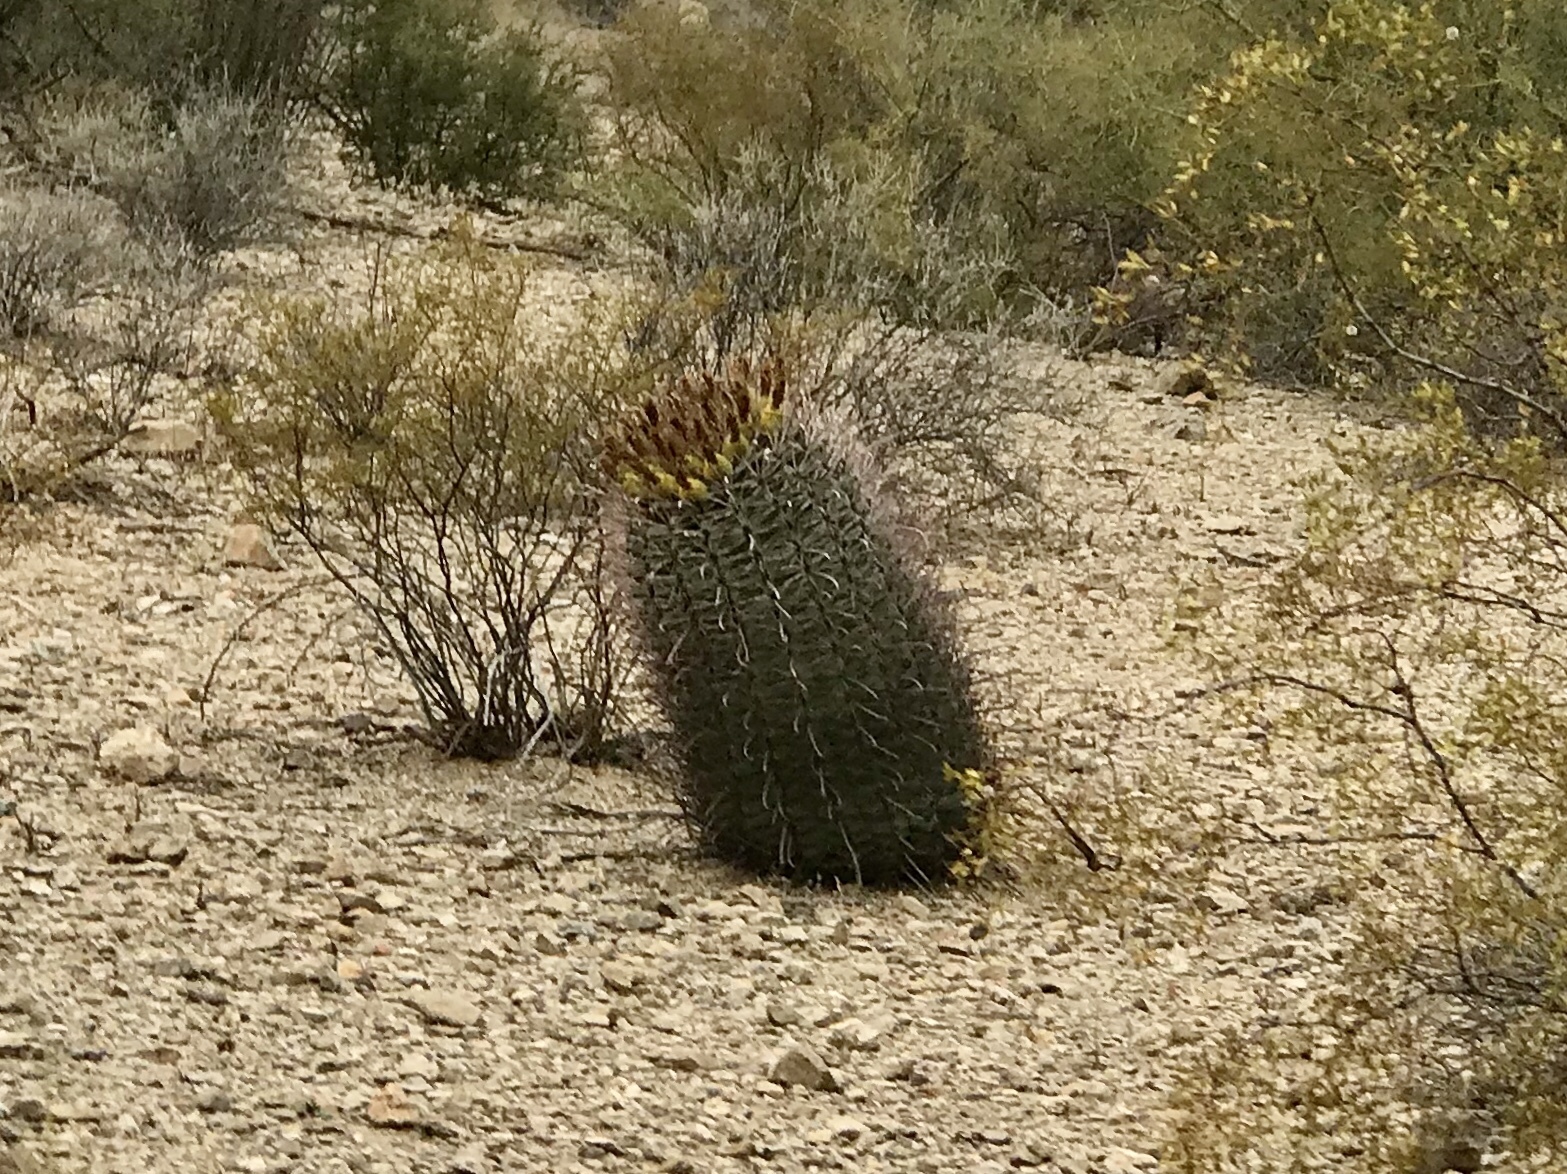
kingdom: Plantae
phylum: Tracheophyta
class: Magnoliopsida
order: Caryophyllales
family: Cactaceae
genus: Ferocactus
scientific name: Ferocactus wislizeni
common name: Candy barrel cactus
